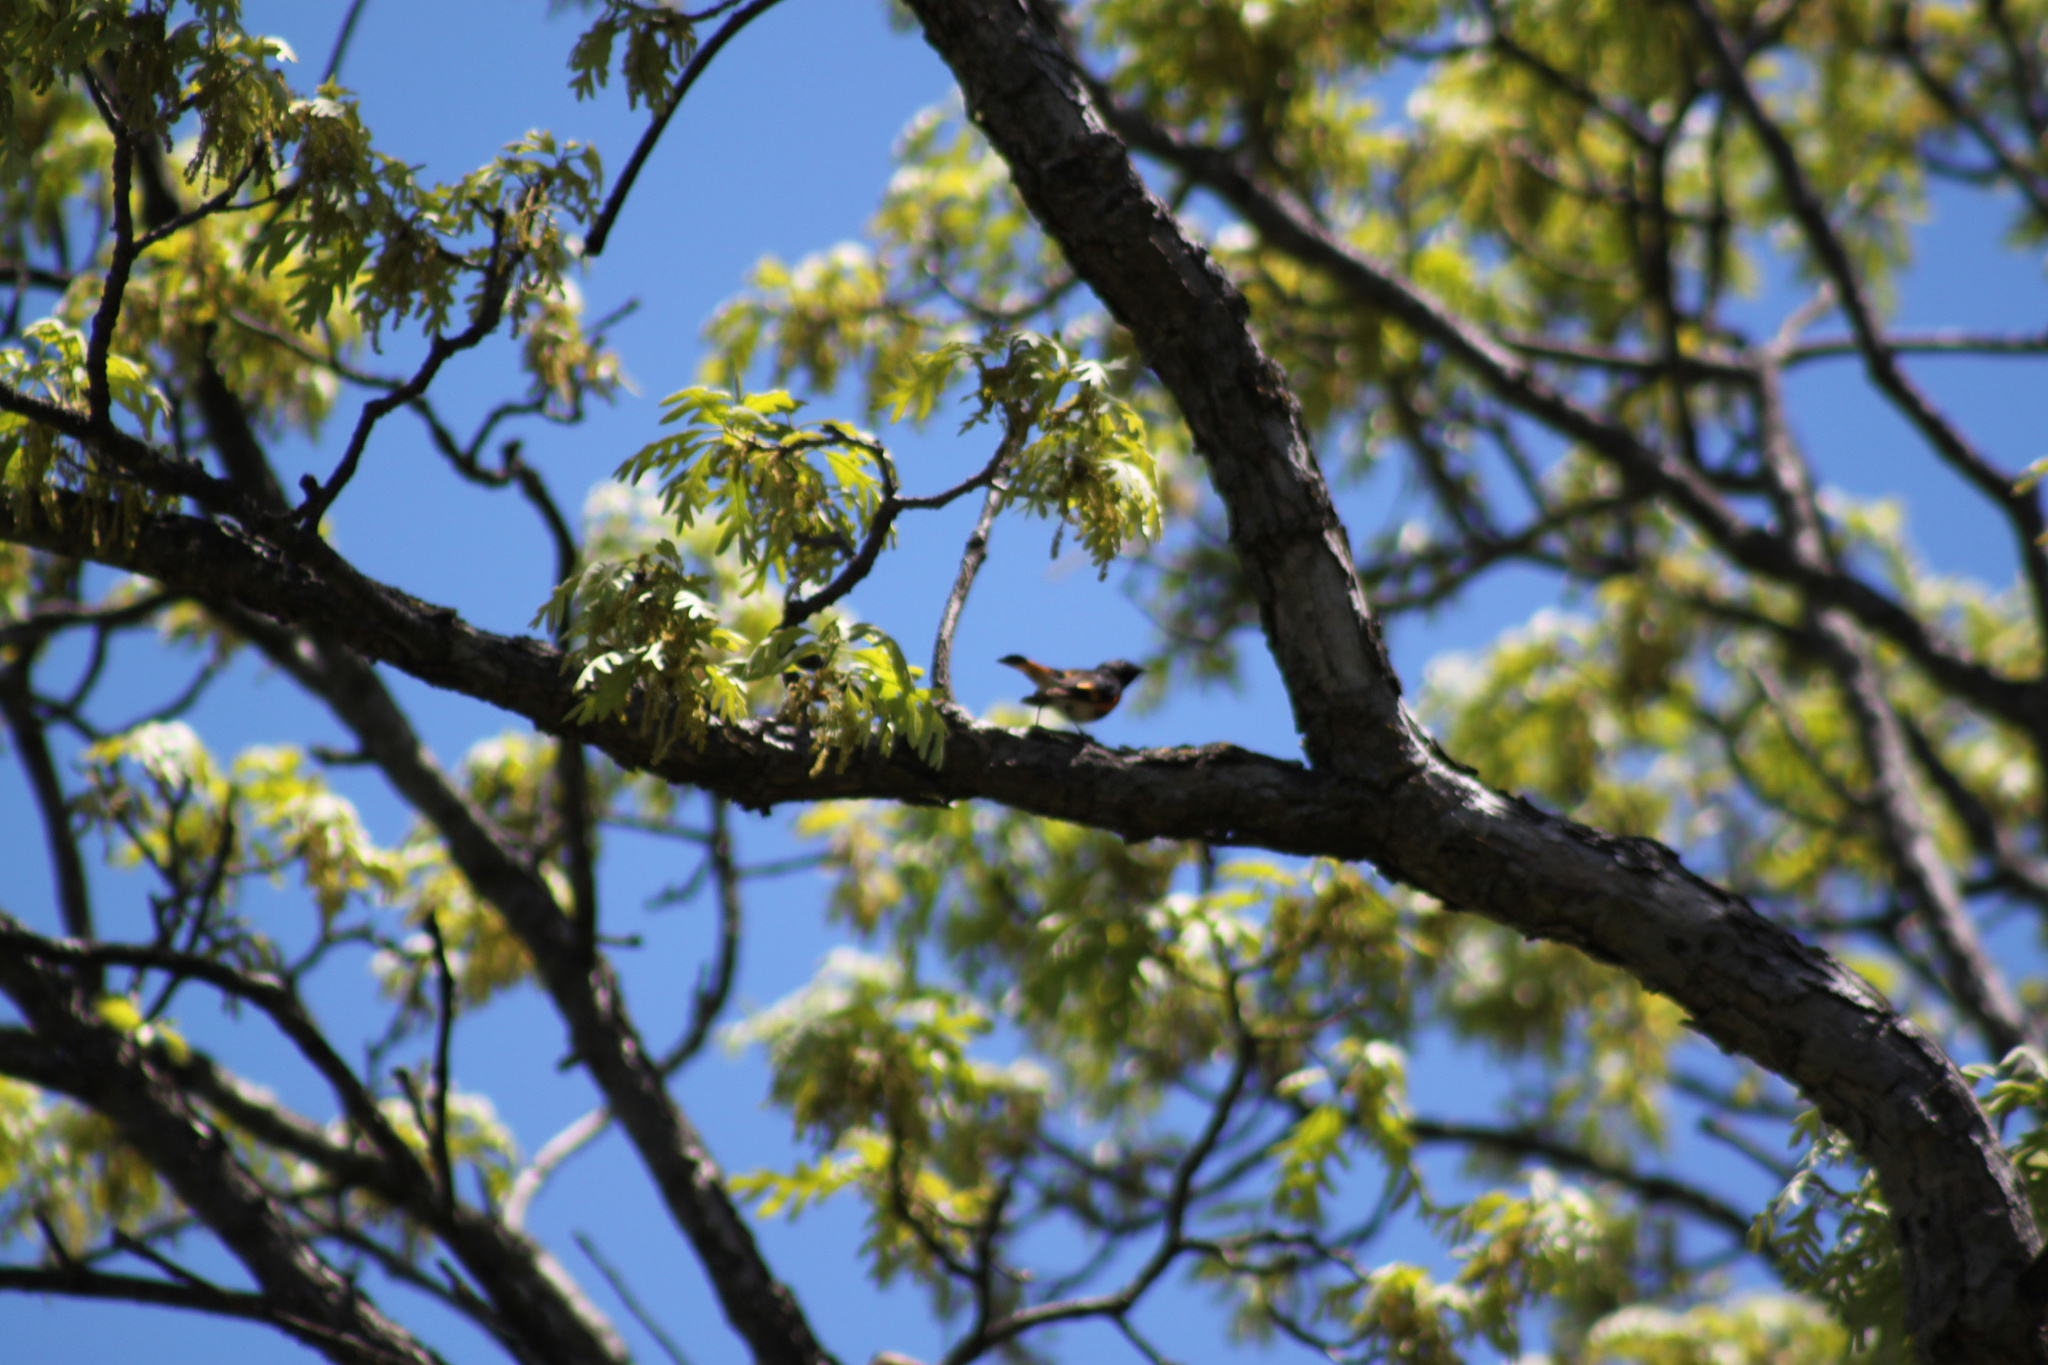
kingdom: Animalia
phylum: Chordata
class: Aves
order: Passeriformes
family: Parulidae
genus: Setophaga
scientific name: Setophaga ruticilla
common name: American redstart
